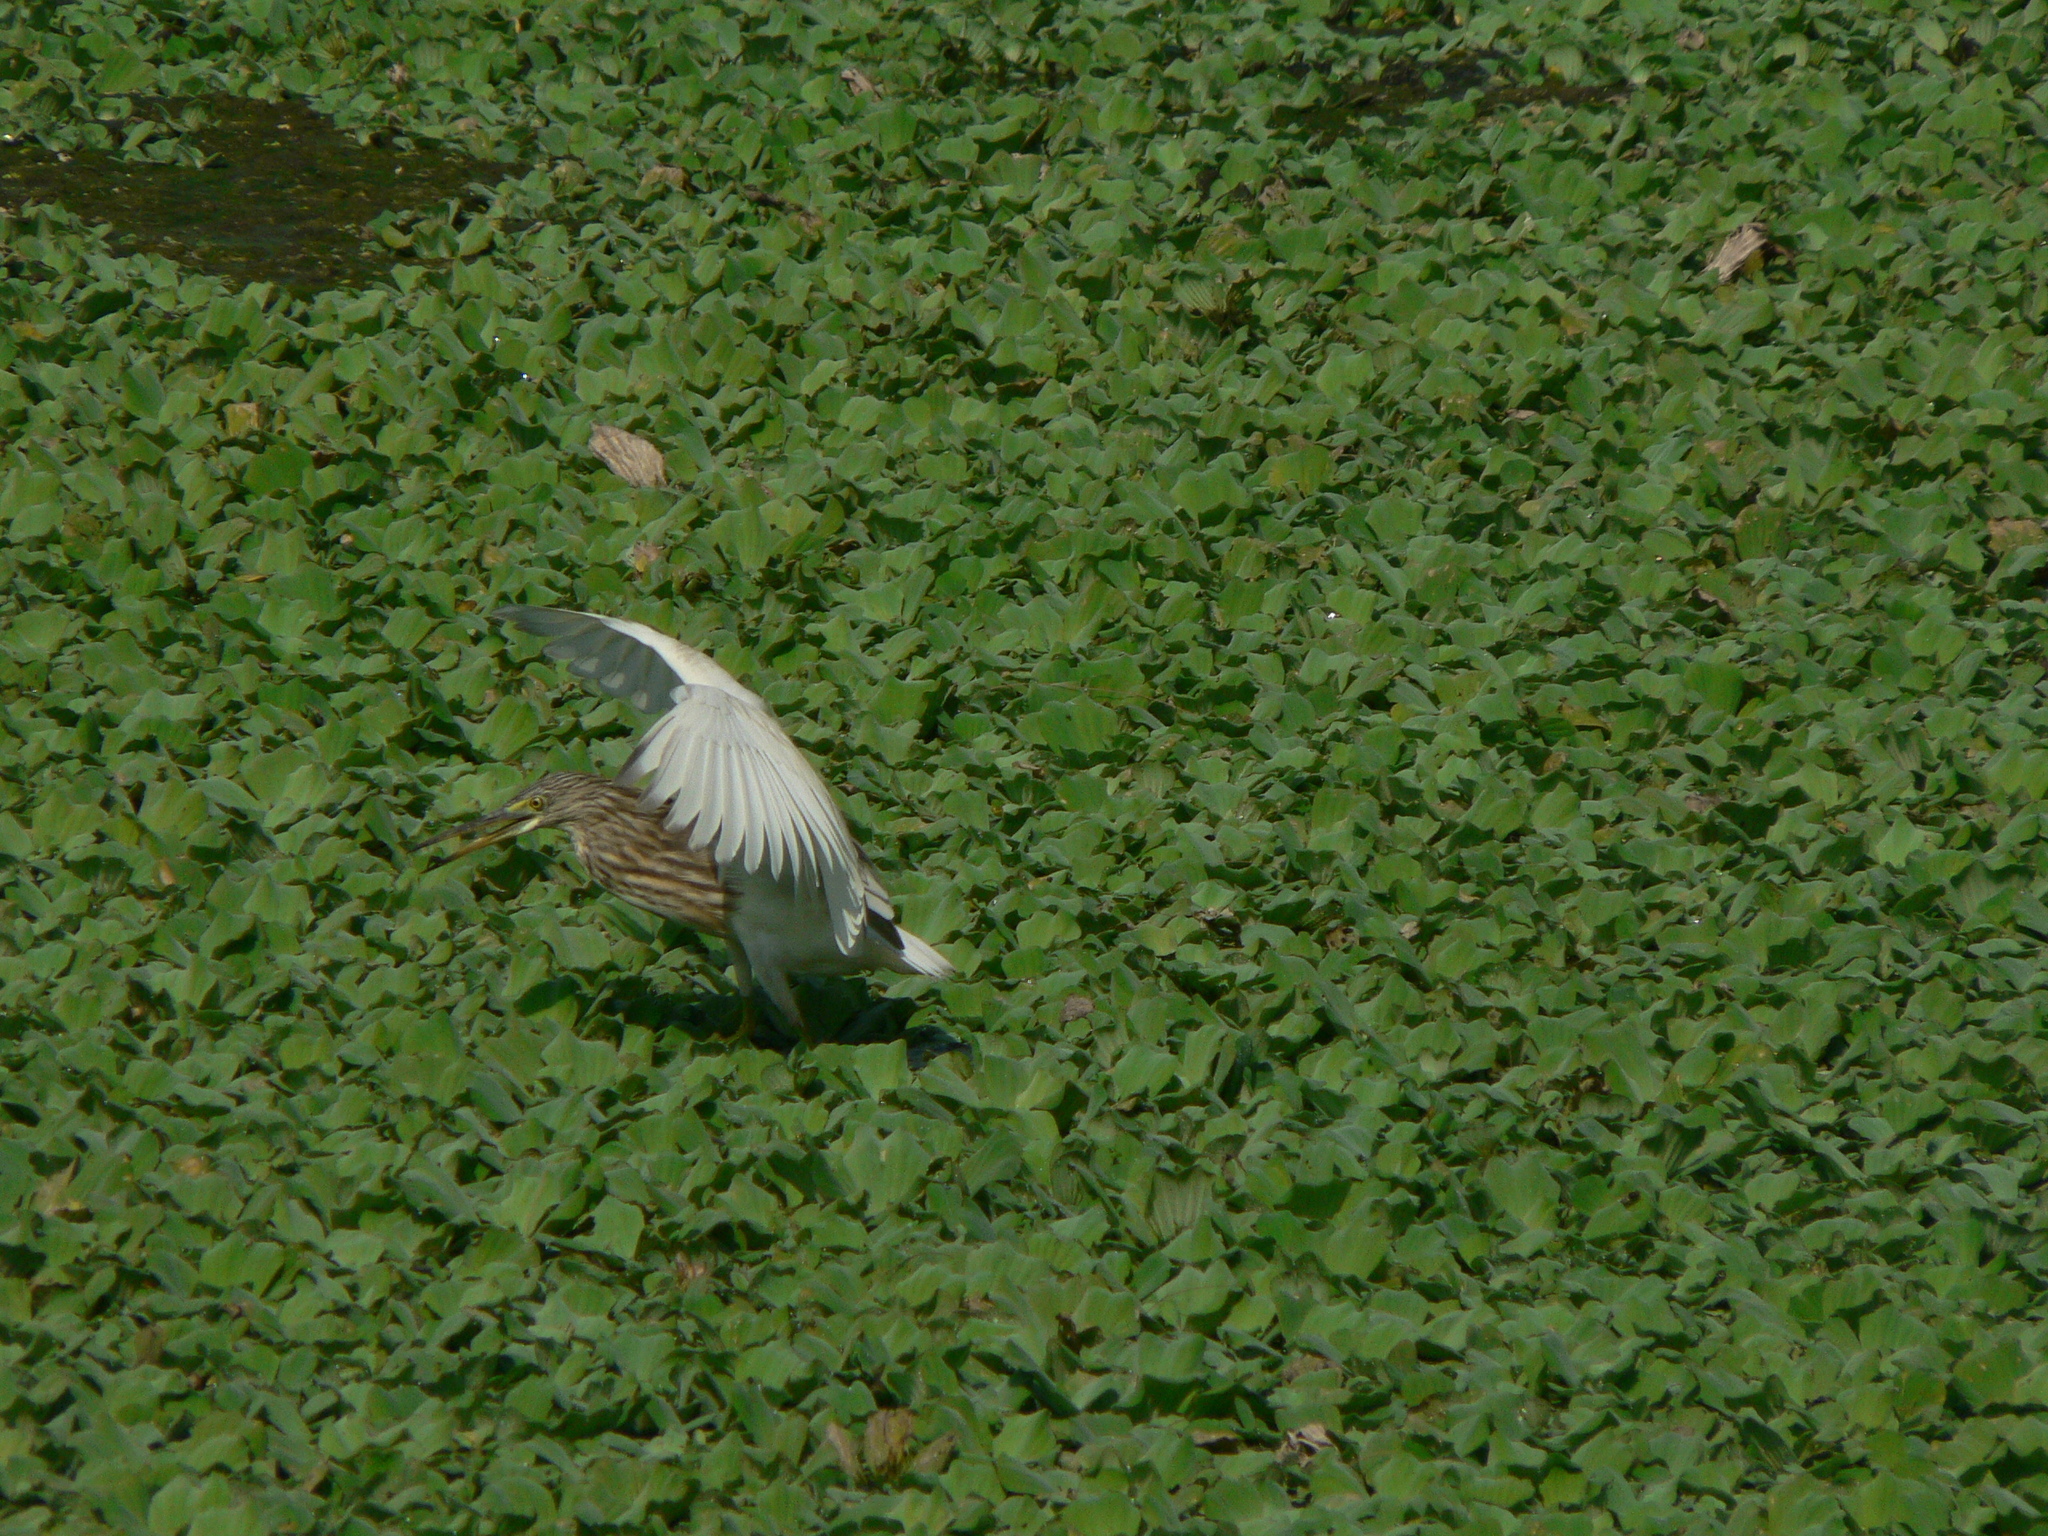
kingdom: Animalia
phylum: Chordata
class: Aves
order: Pelecaniformes
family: Ardeidae
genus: Ardeola
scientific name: Ardeola
